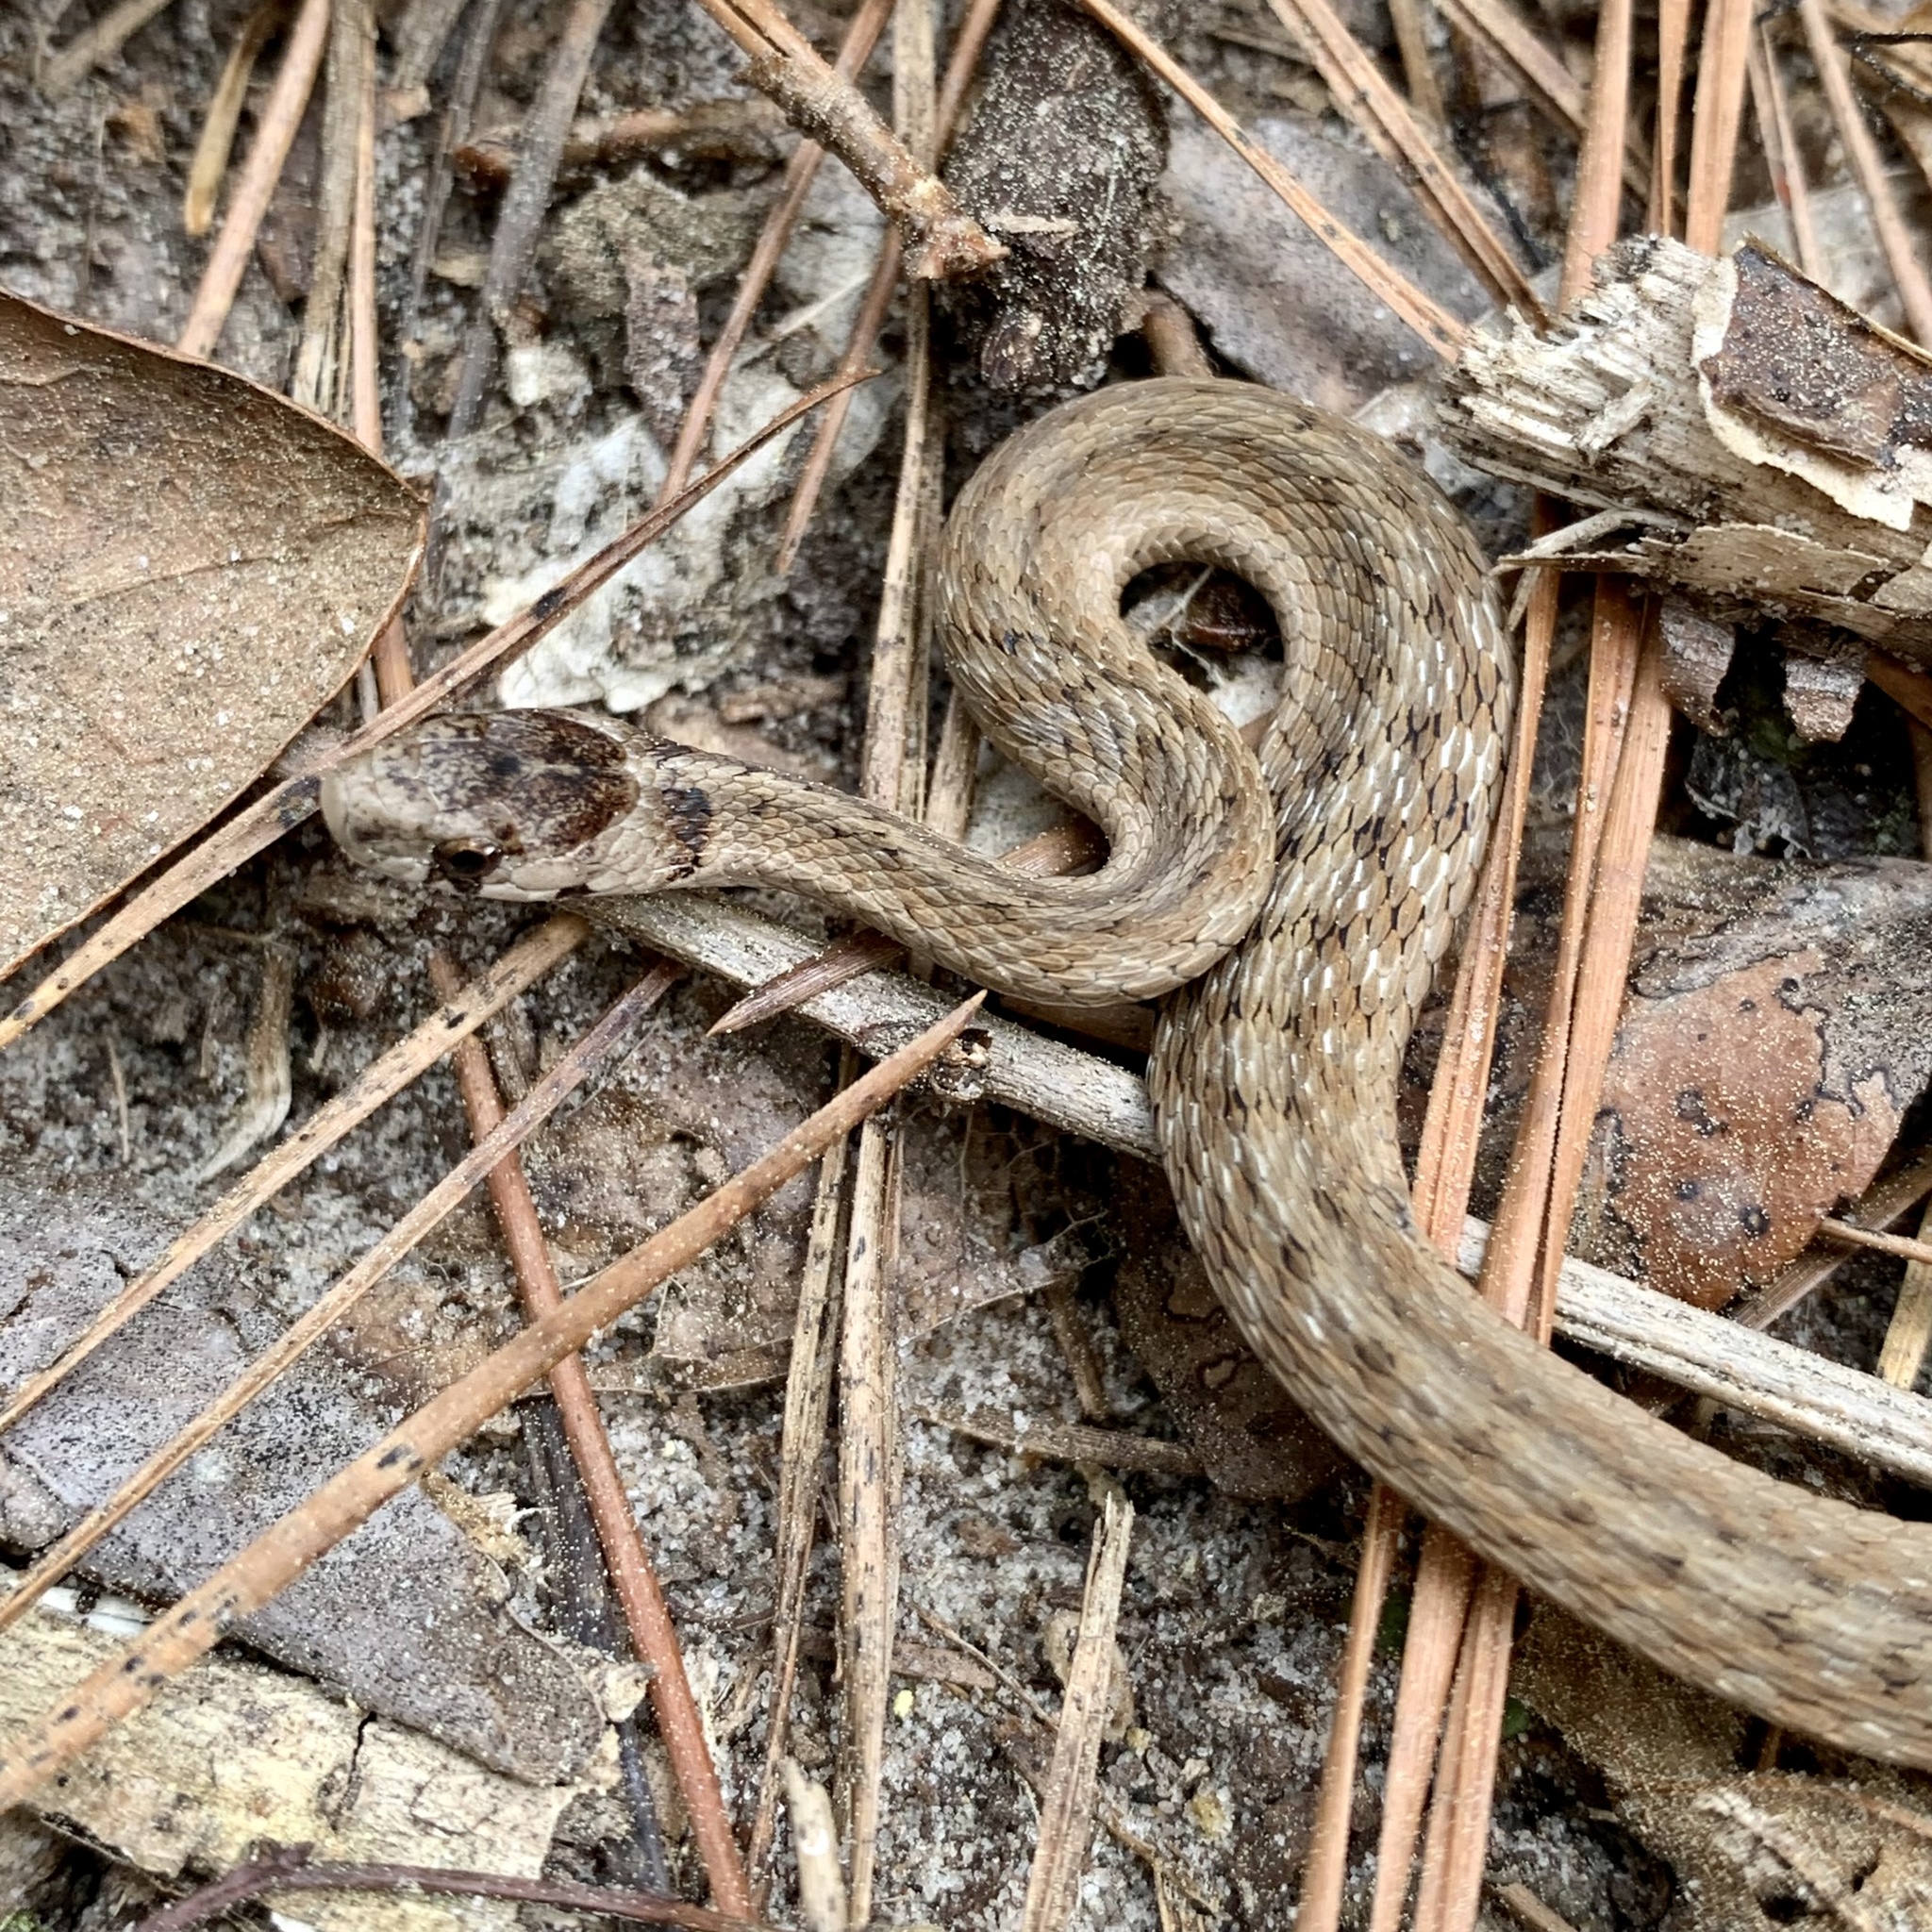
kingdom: Animalia
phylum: Chordata
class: Squamata
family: Colubridae
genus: Storeria
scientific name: Storeria dekayi
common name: (dekay’s) brown snake
